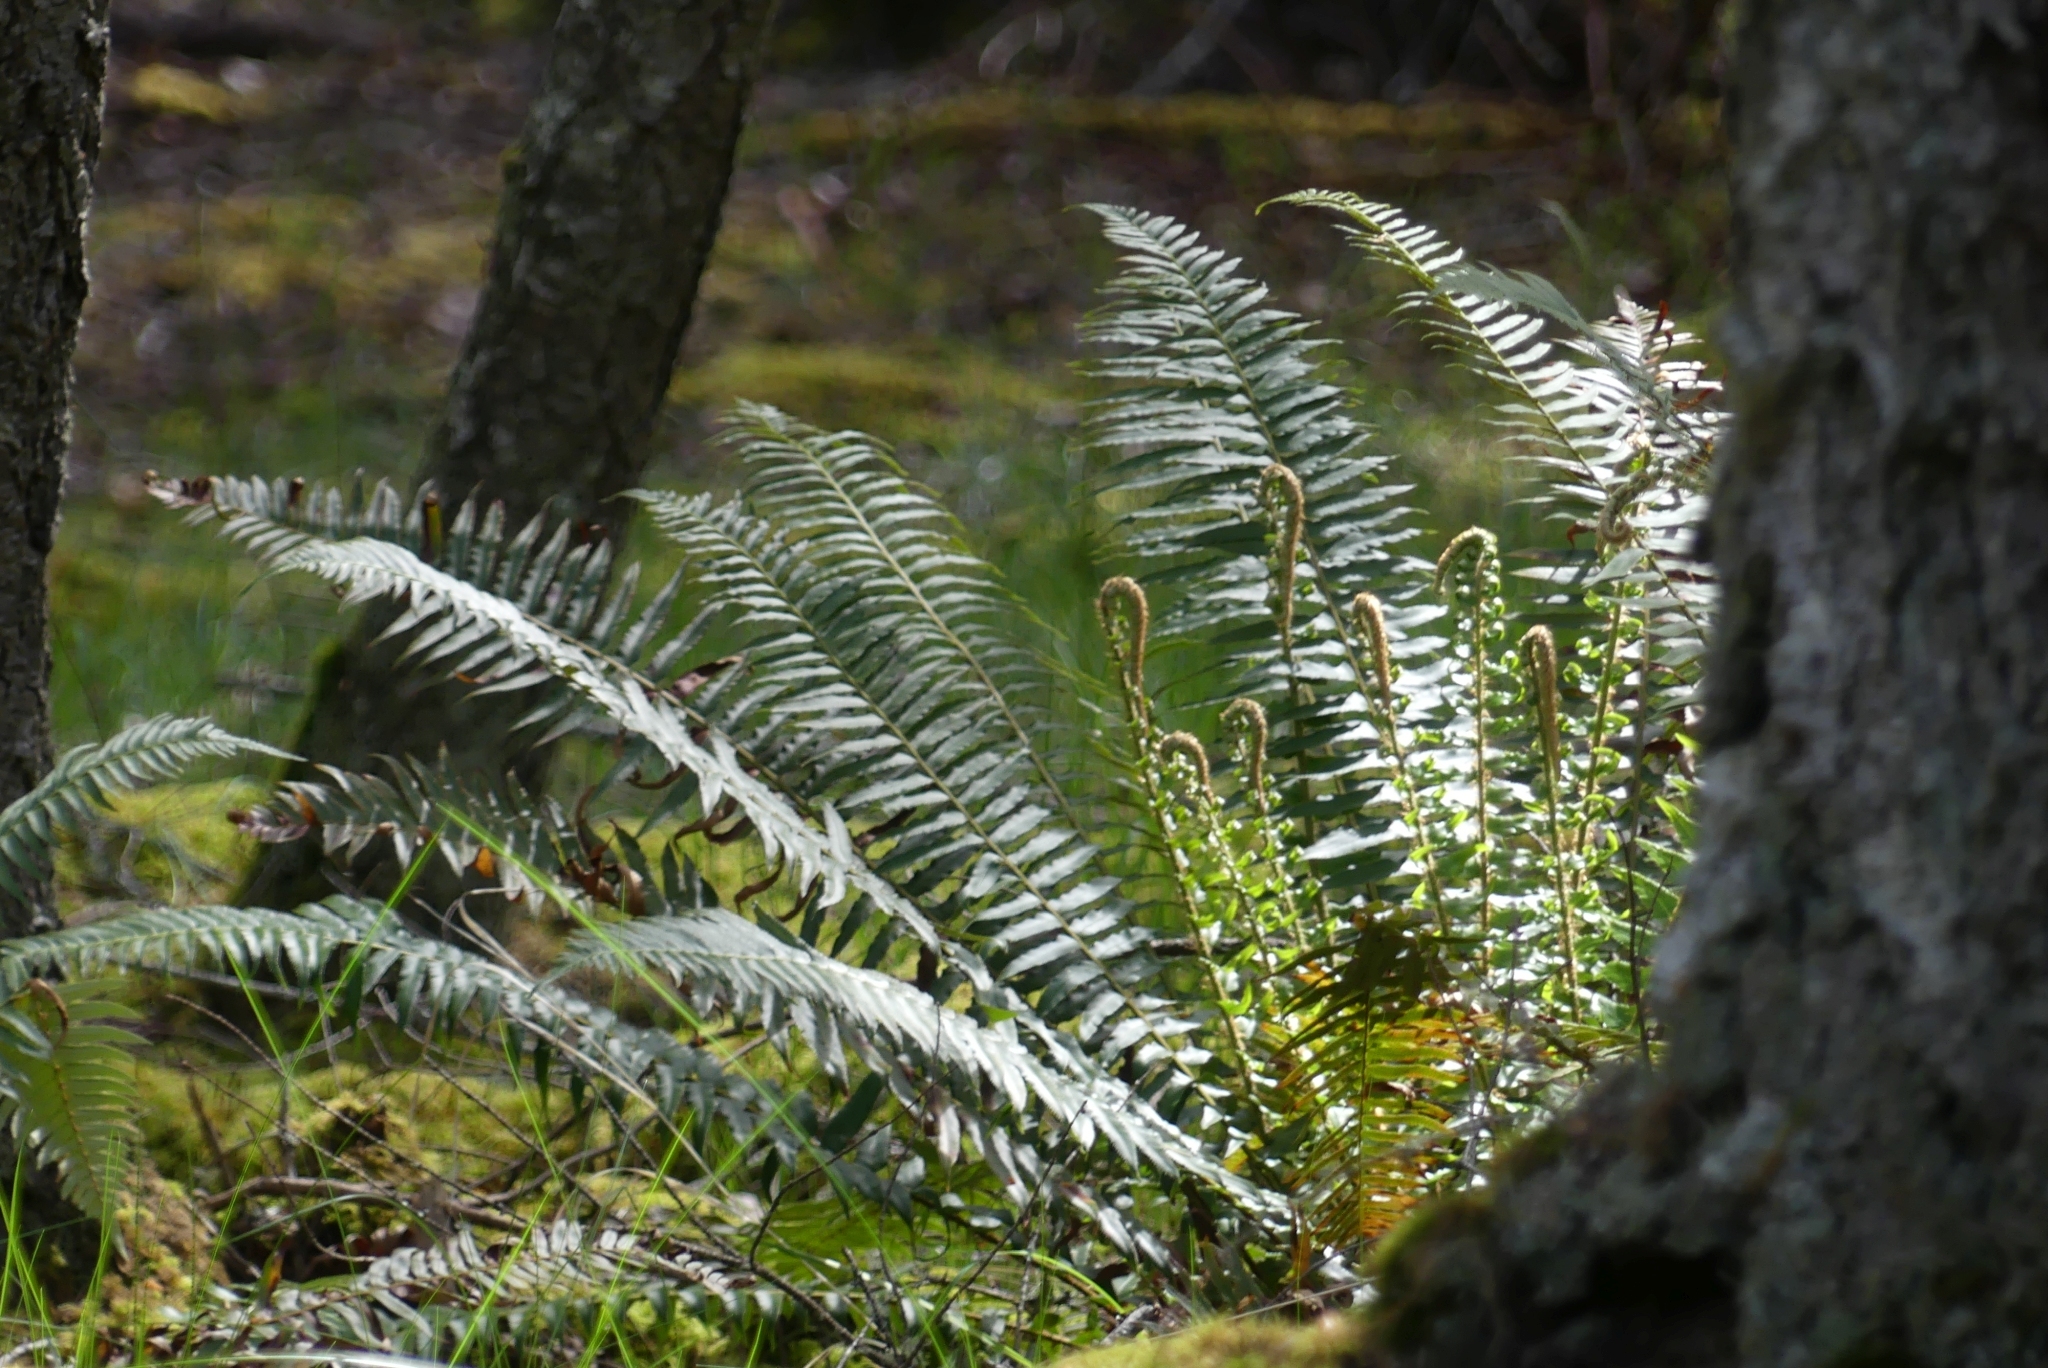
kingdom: Plantae
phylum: Tracheophyta
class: Polypodiopsida
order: Polypodiales
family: Dryopteridaceae
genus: Polystichum
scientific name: Polystichum munitum
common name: Western sword-fern
